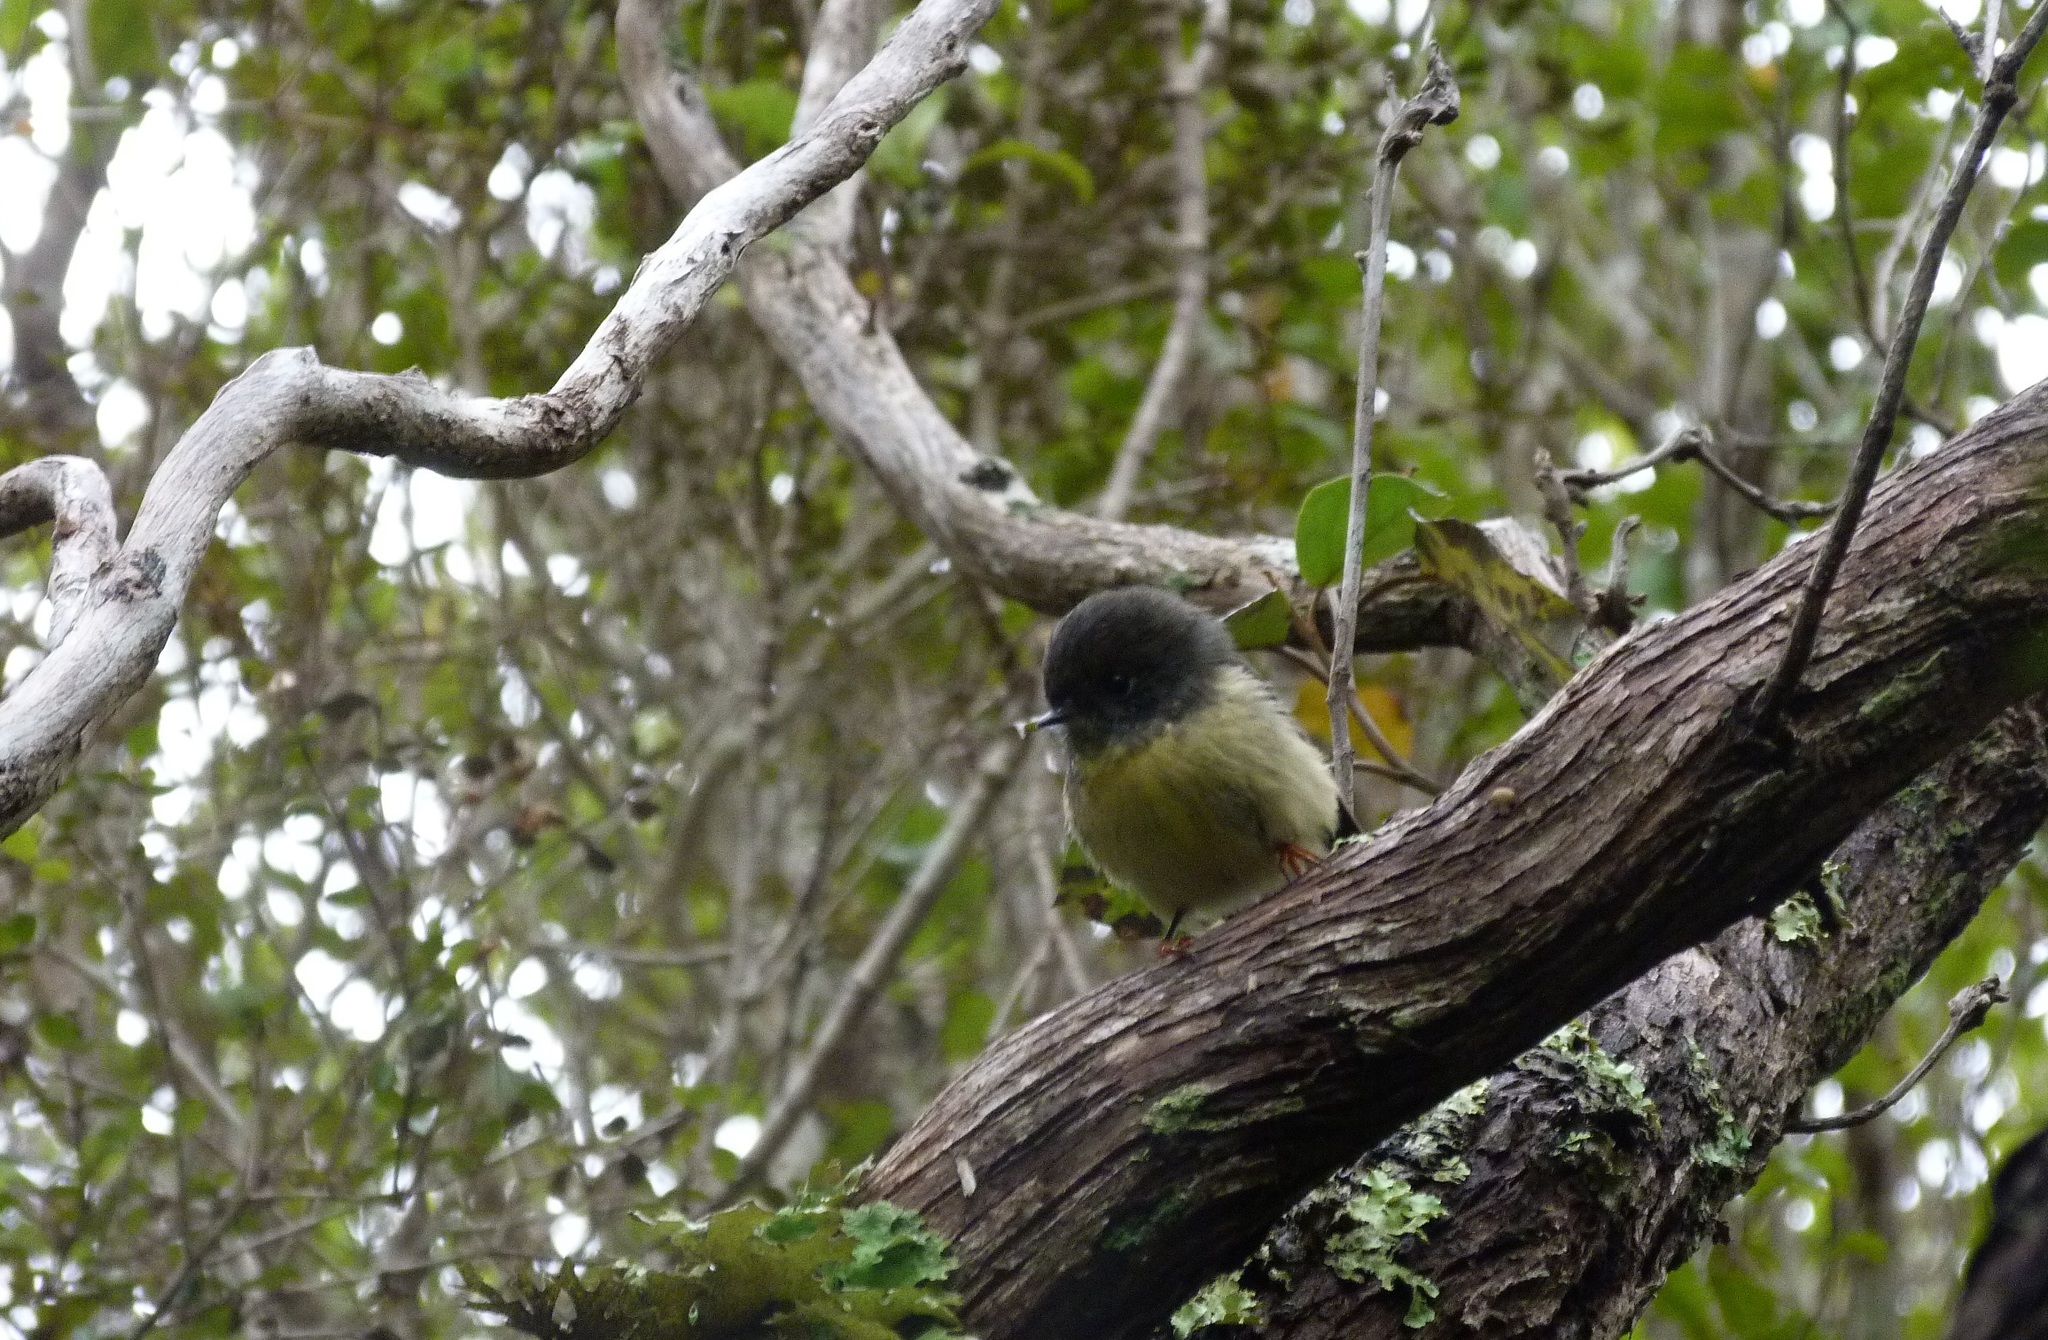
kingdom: Animalia
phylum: Chordata
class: Aves
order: Passeriformes
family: Petroicidae
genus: Petroica
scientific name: Petroica macrocephala
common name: Tomtit
